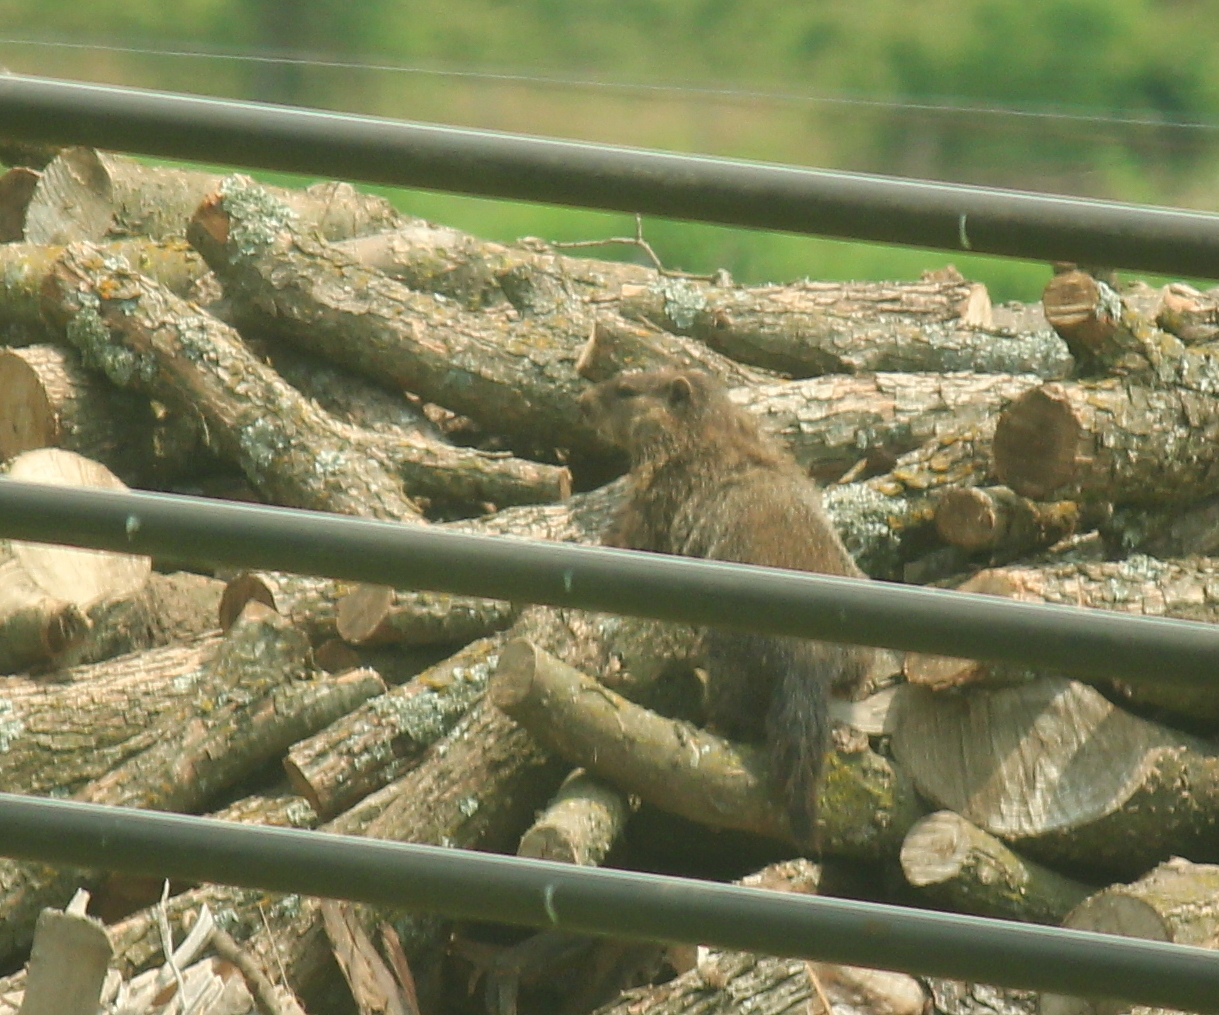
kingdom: Animalia
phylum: Chordata
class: Mammalia
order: Rodentia
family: Sciuridae
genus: Marmota
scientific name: Marmota monax
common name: Groundhog
